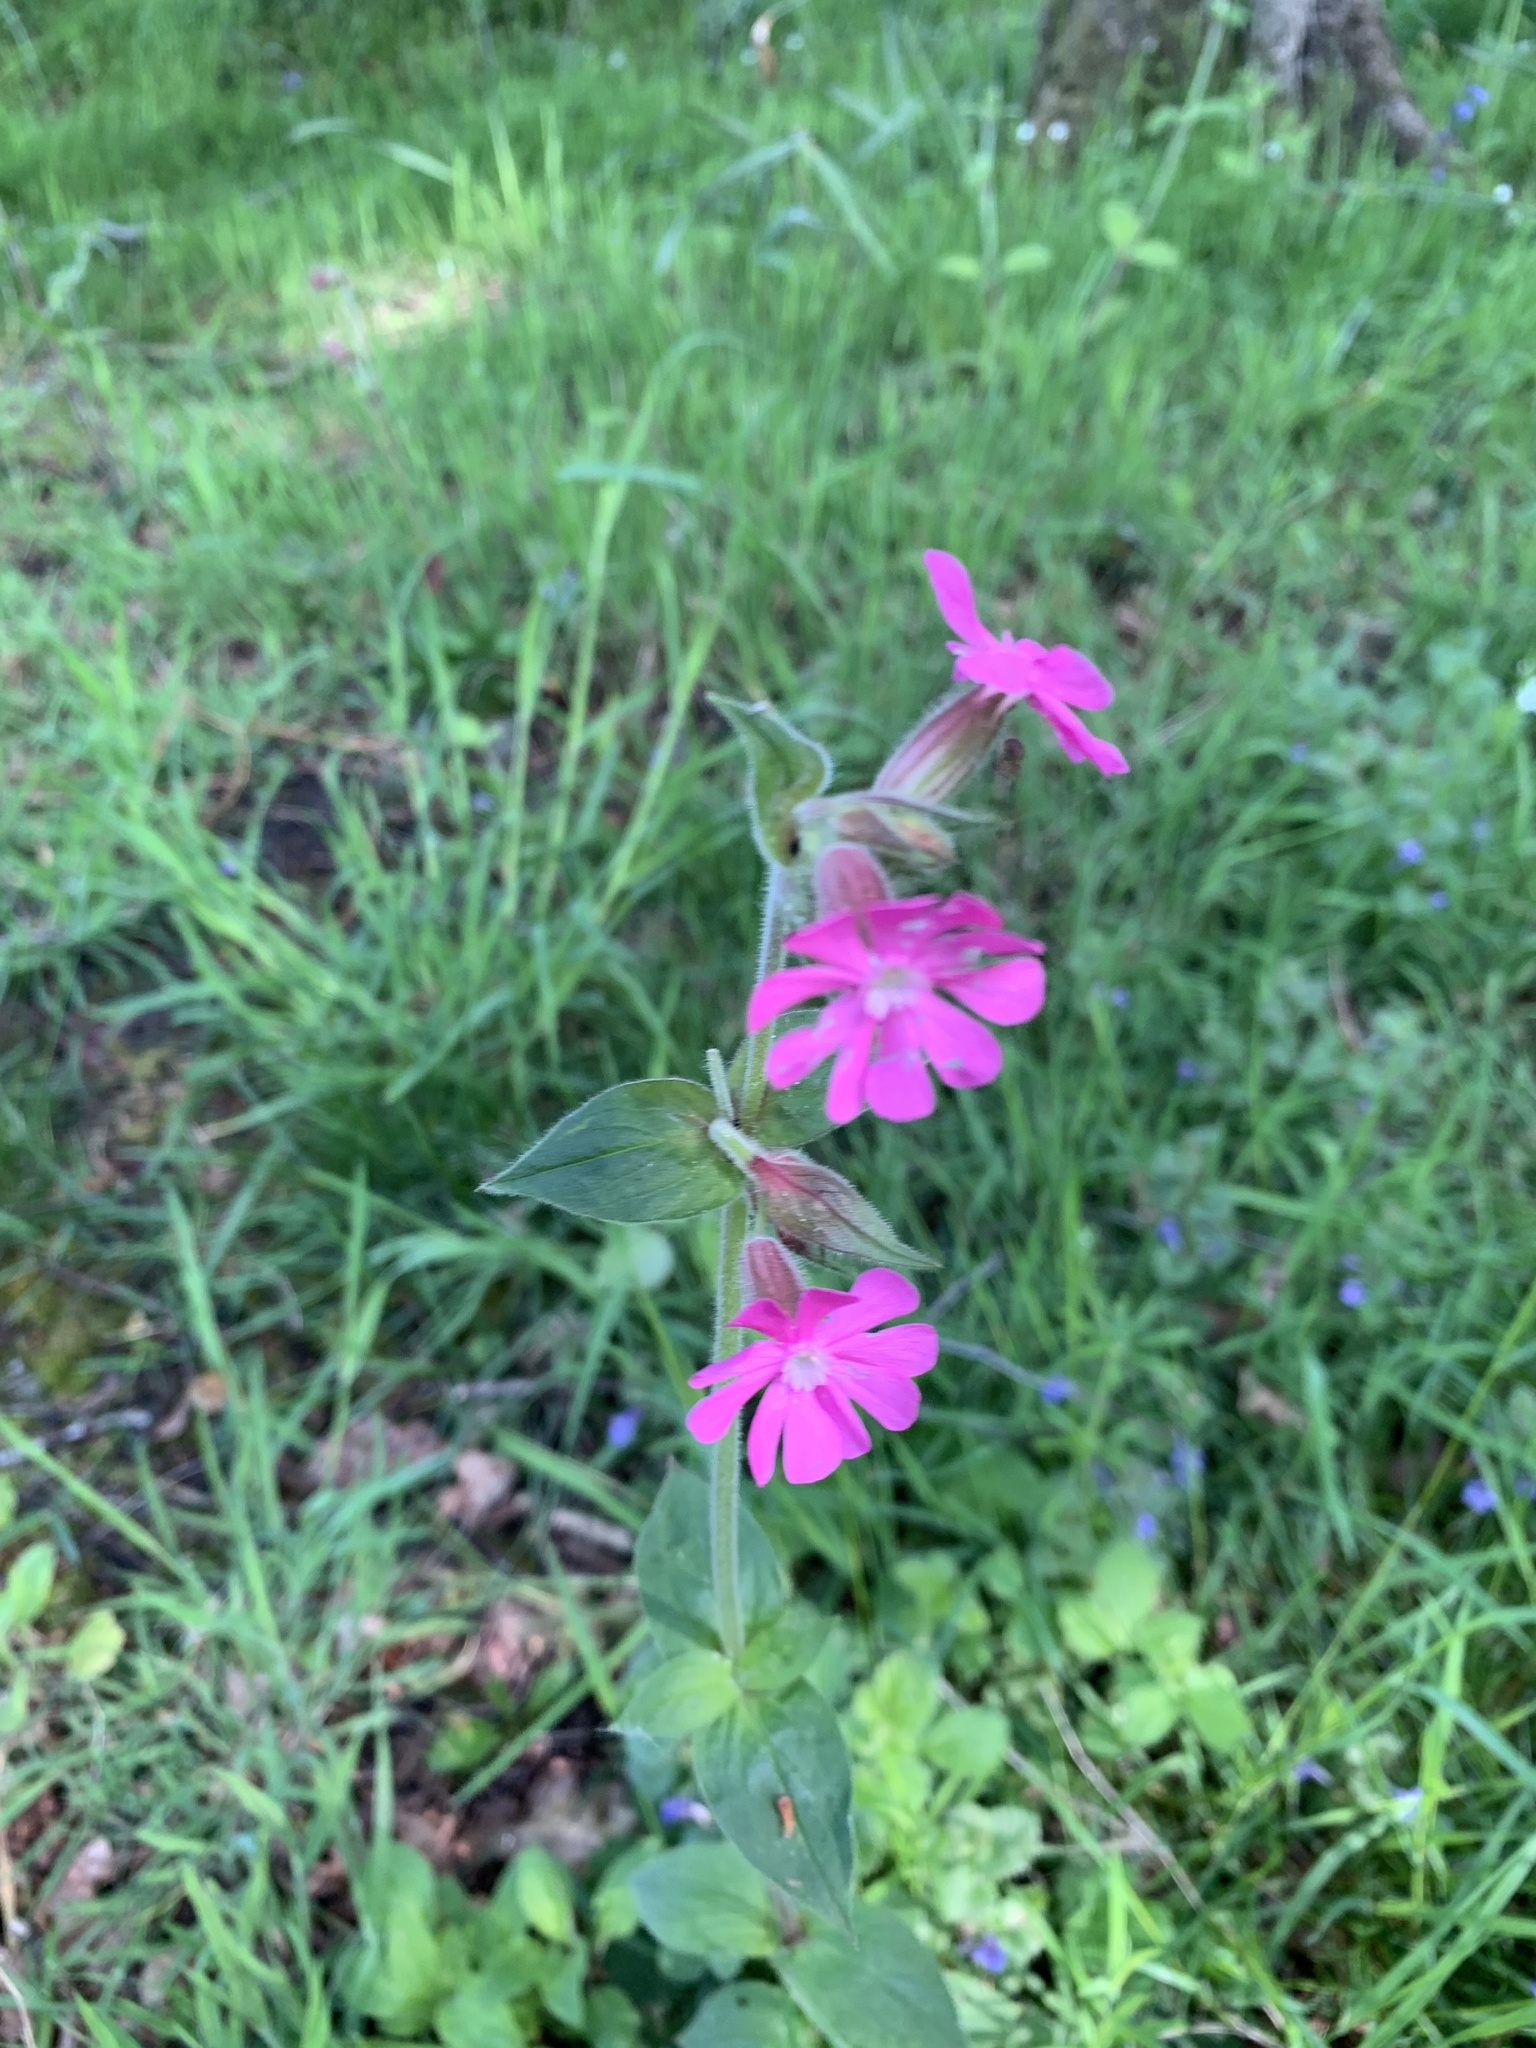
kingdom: Plantae
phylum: Tracheophyta
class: Magnoliopsida
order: Caryophyllales
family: Caryophyllaceae
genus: Silene
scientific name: Silene dioica
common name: Red campion
